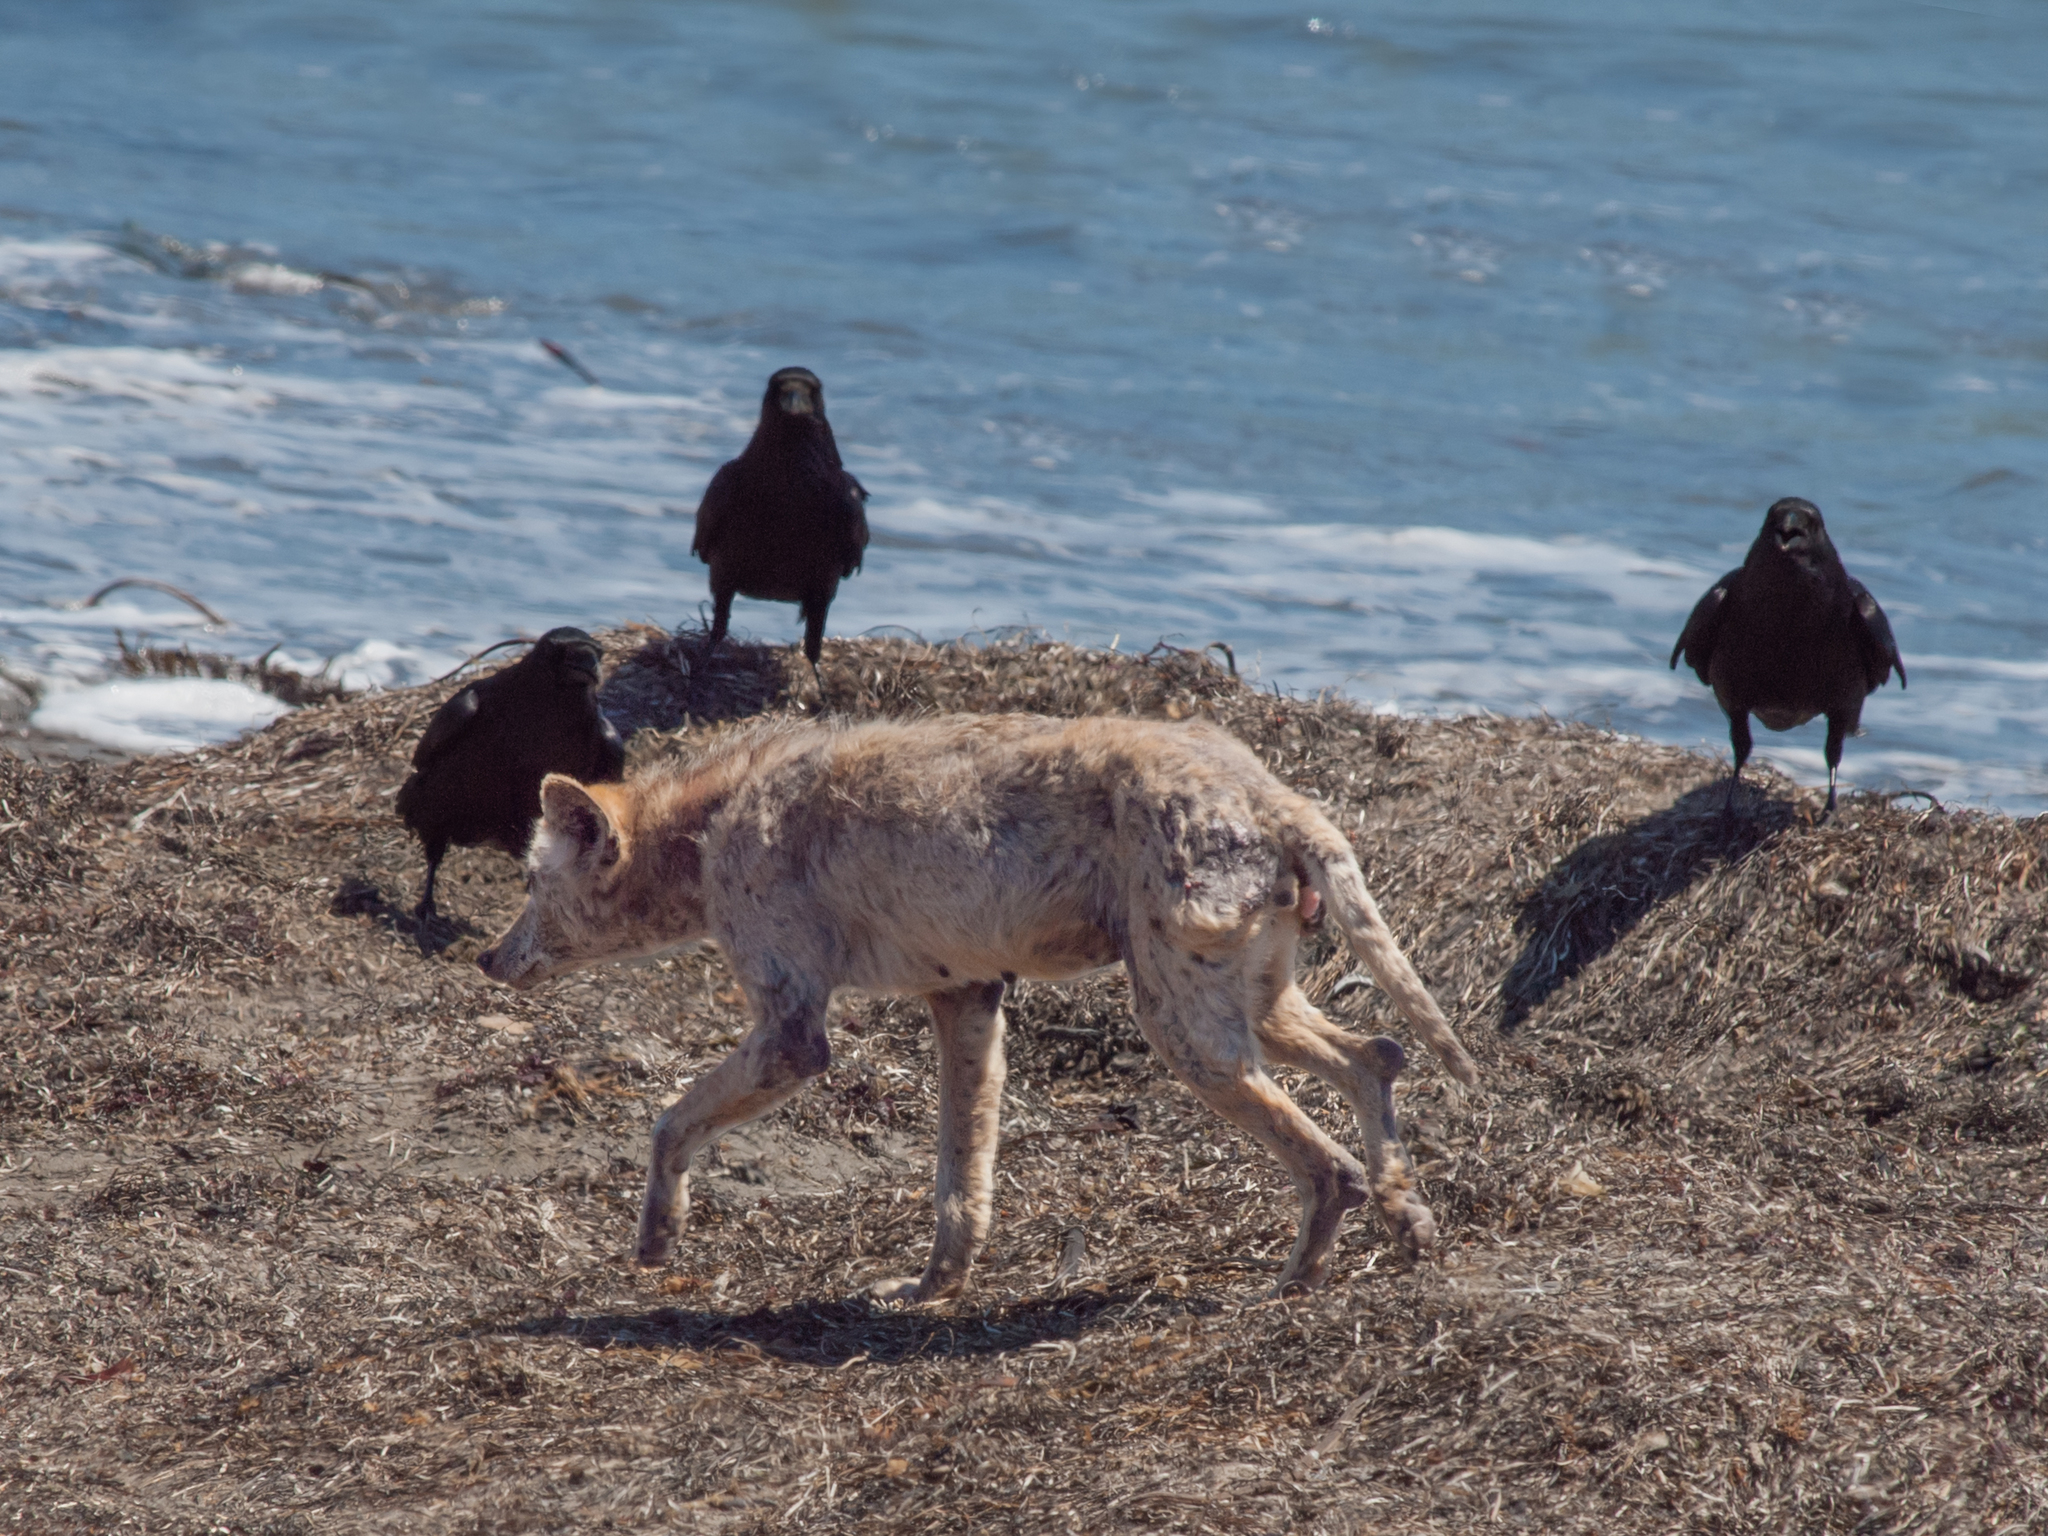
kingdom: Animalia
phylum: Chordata
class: Aves
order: Passeriformes
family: Corvidae
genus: Corvus
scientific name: Corvus corax
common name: Common raven
